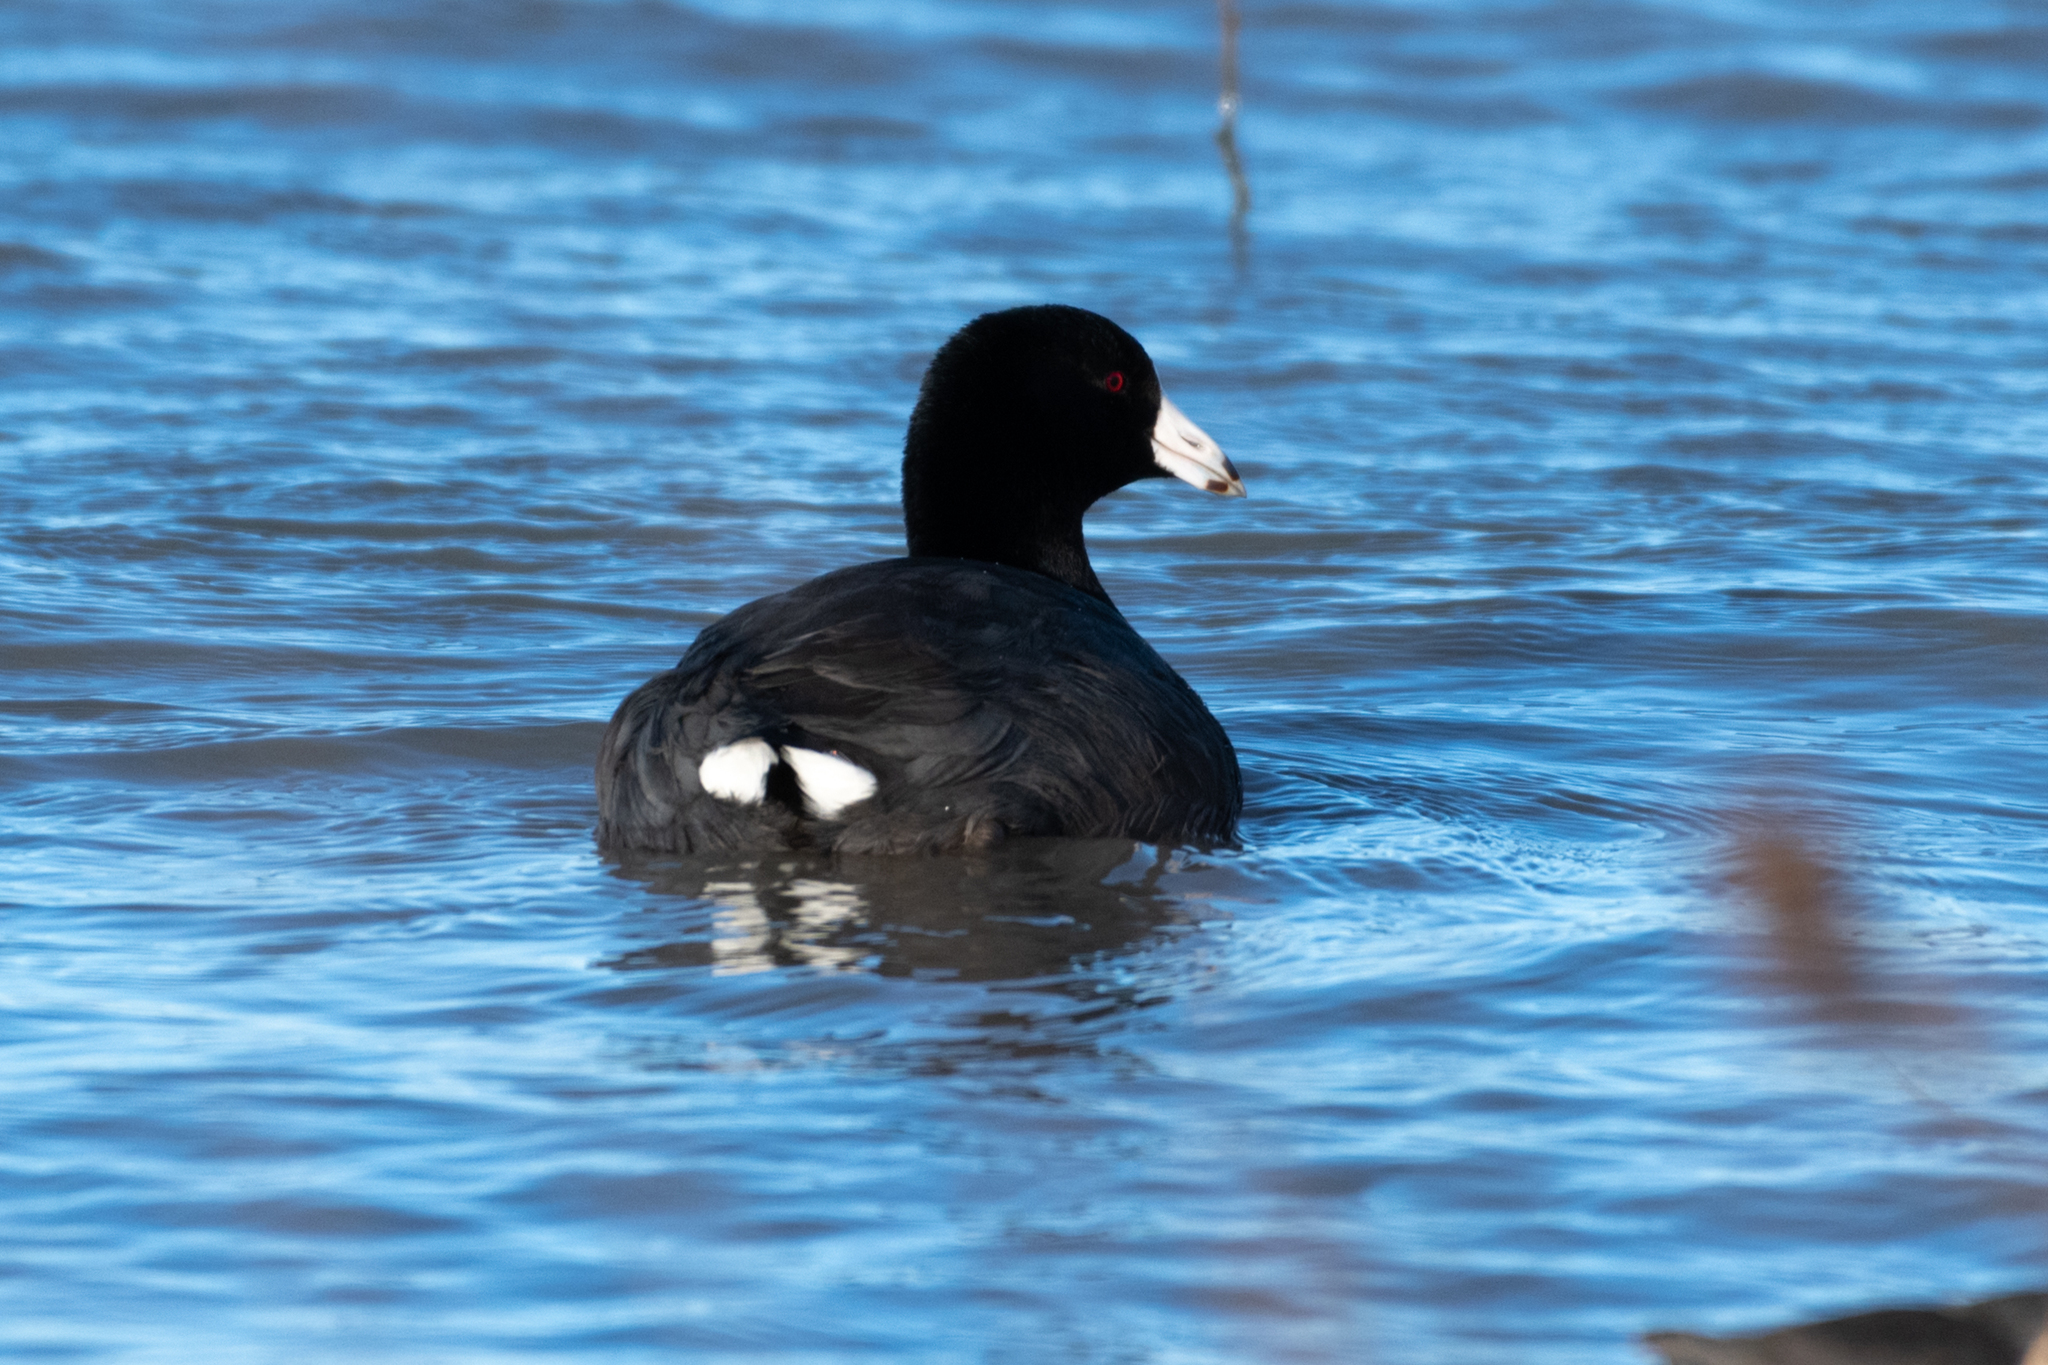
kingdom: Animalia
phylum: Chordata
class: Aves
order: Gruiformes
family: Rallidae
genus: Fulica
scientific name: Fulica americana
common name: American coot
